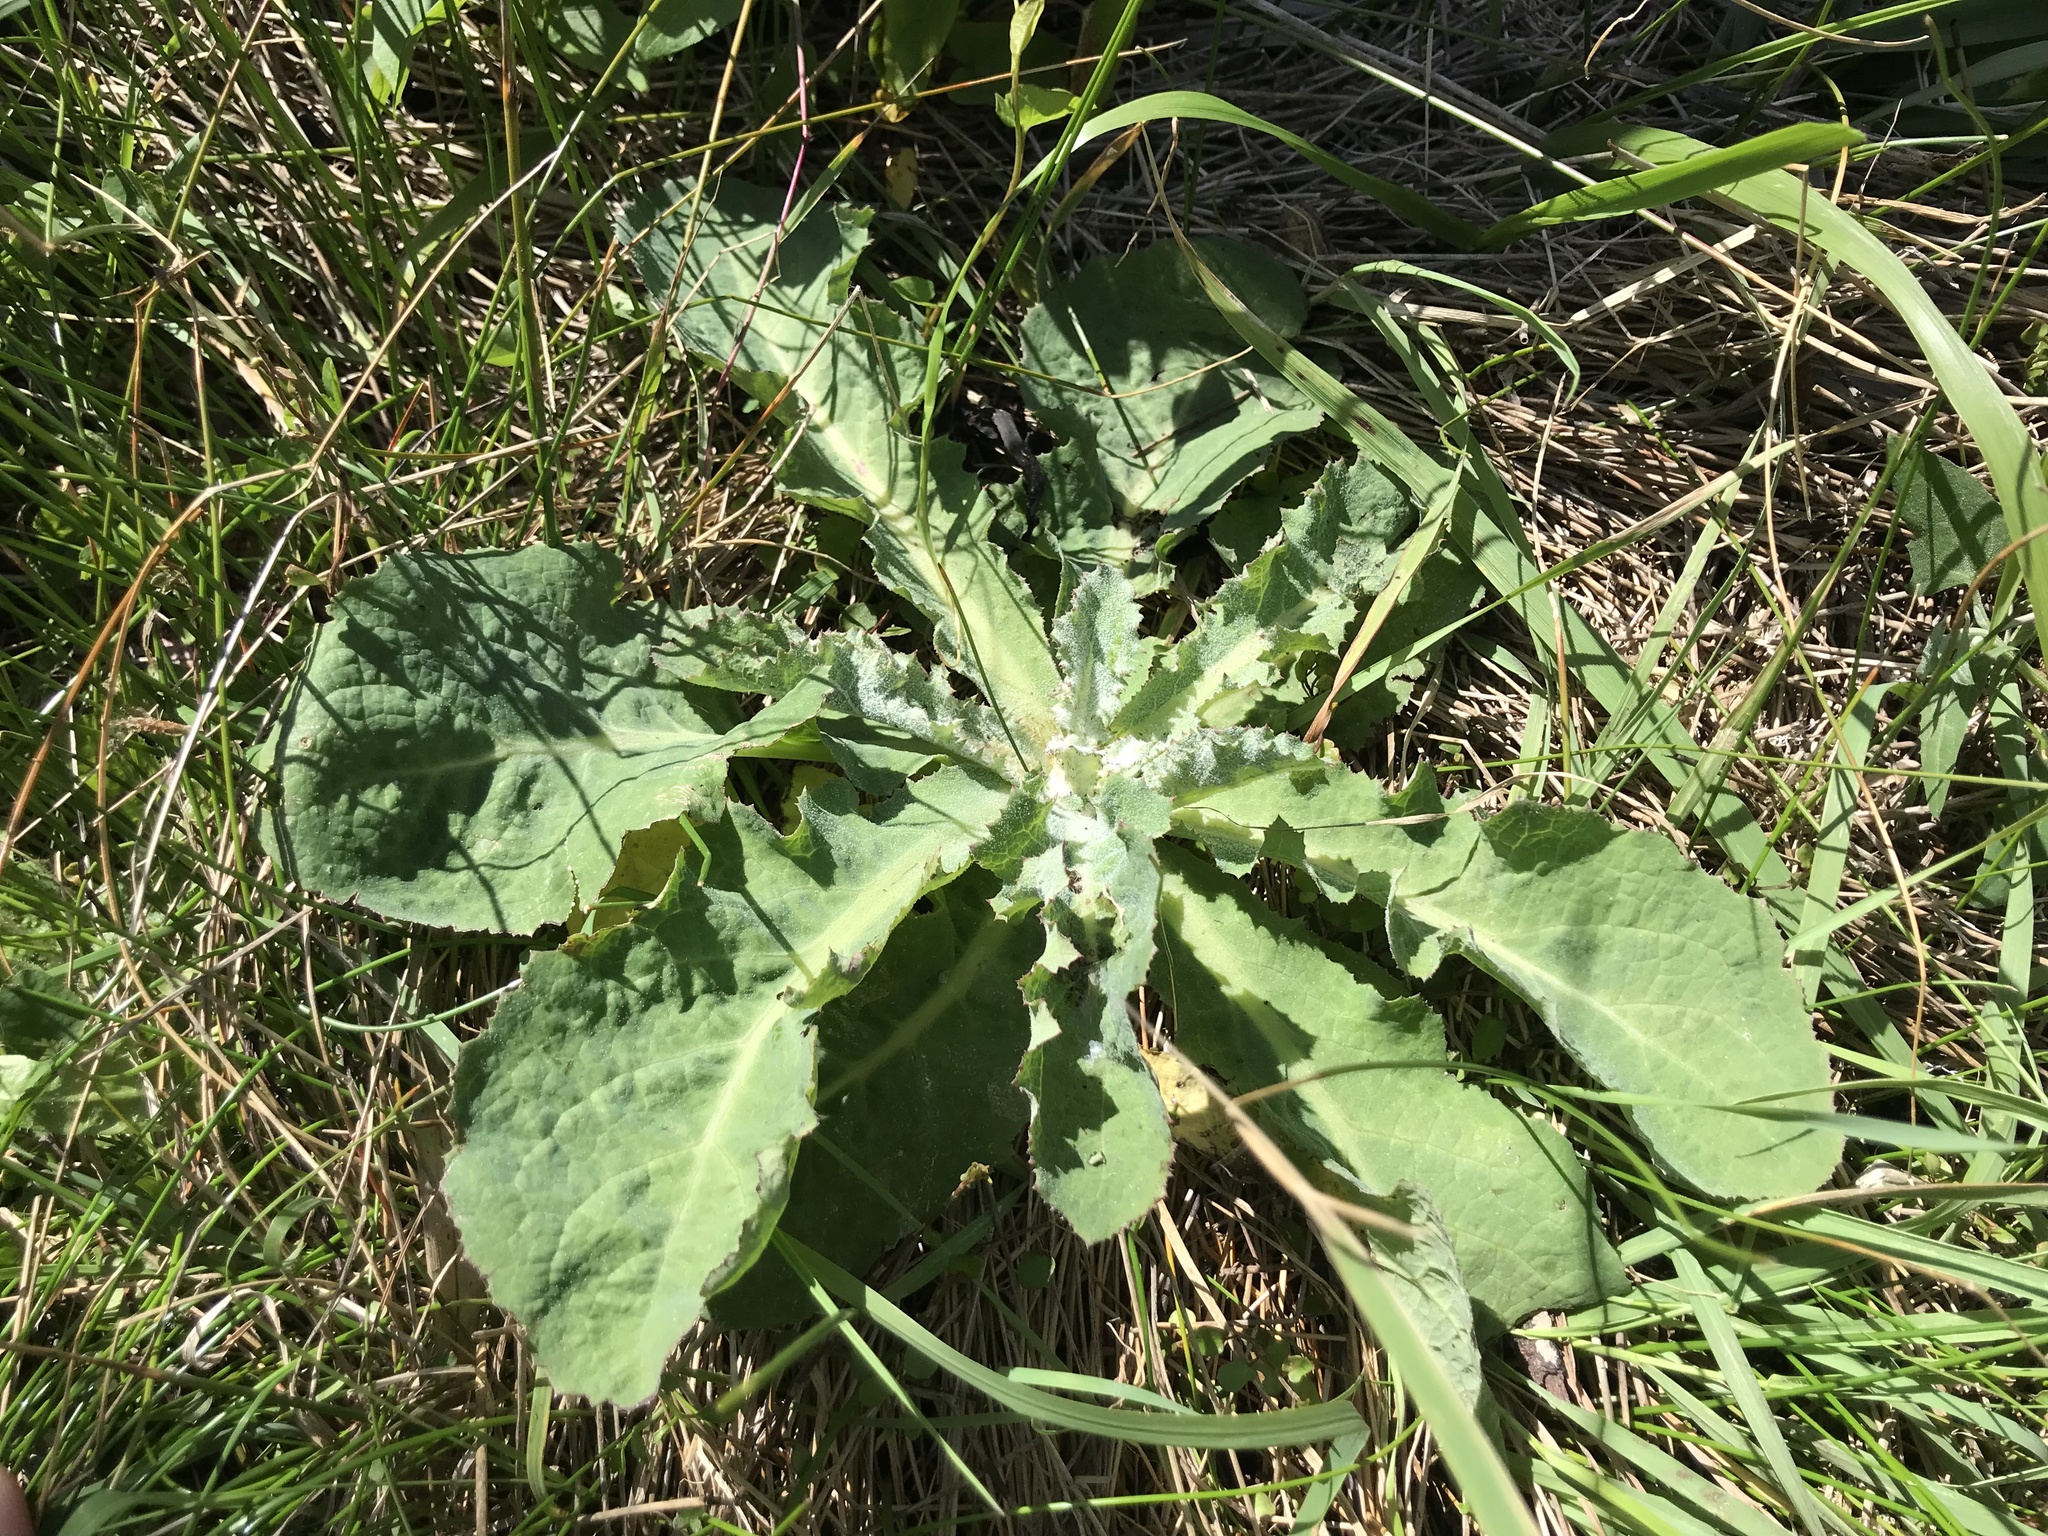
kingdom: Plantae
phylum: Tracheophyta
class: Magnoliopsida
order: Asterales
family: Asteraceae
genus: Sonchus
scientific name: Sonchus kirkii
